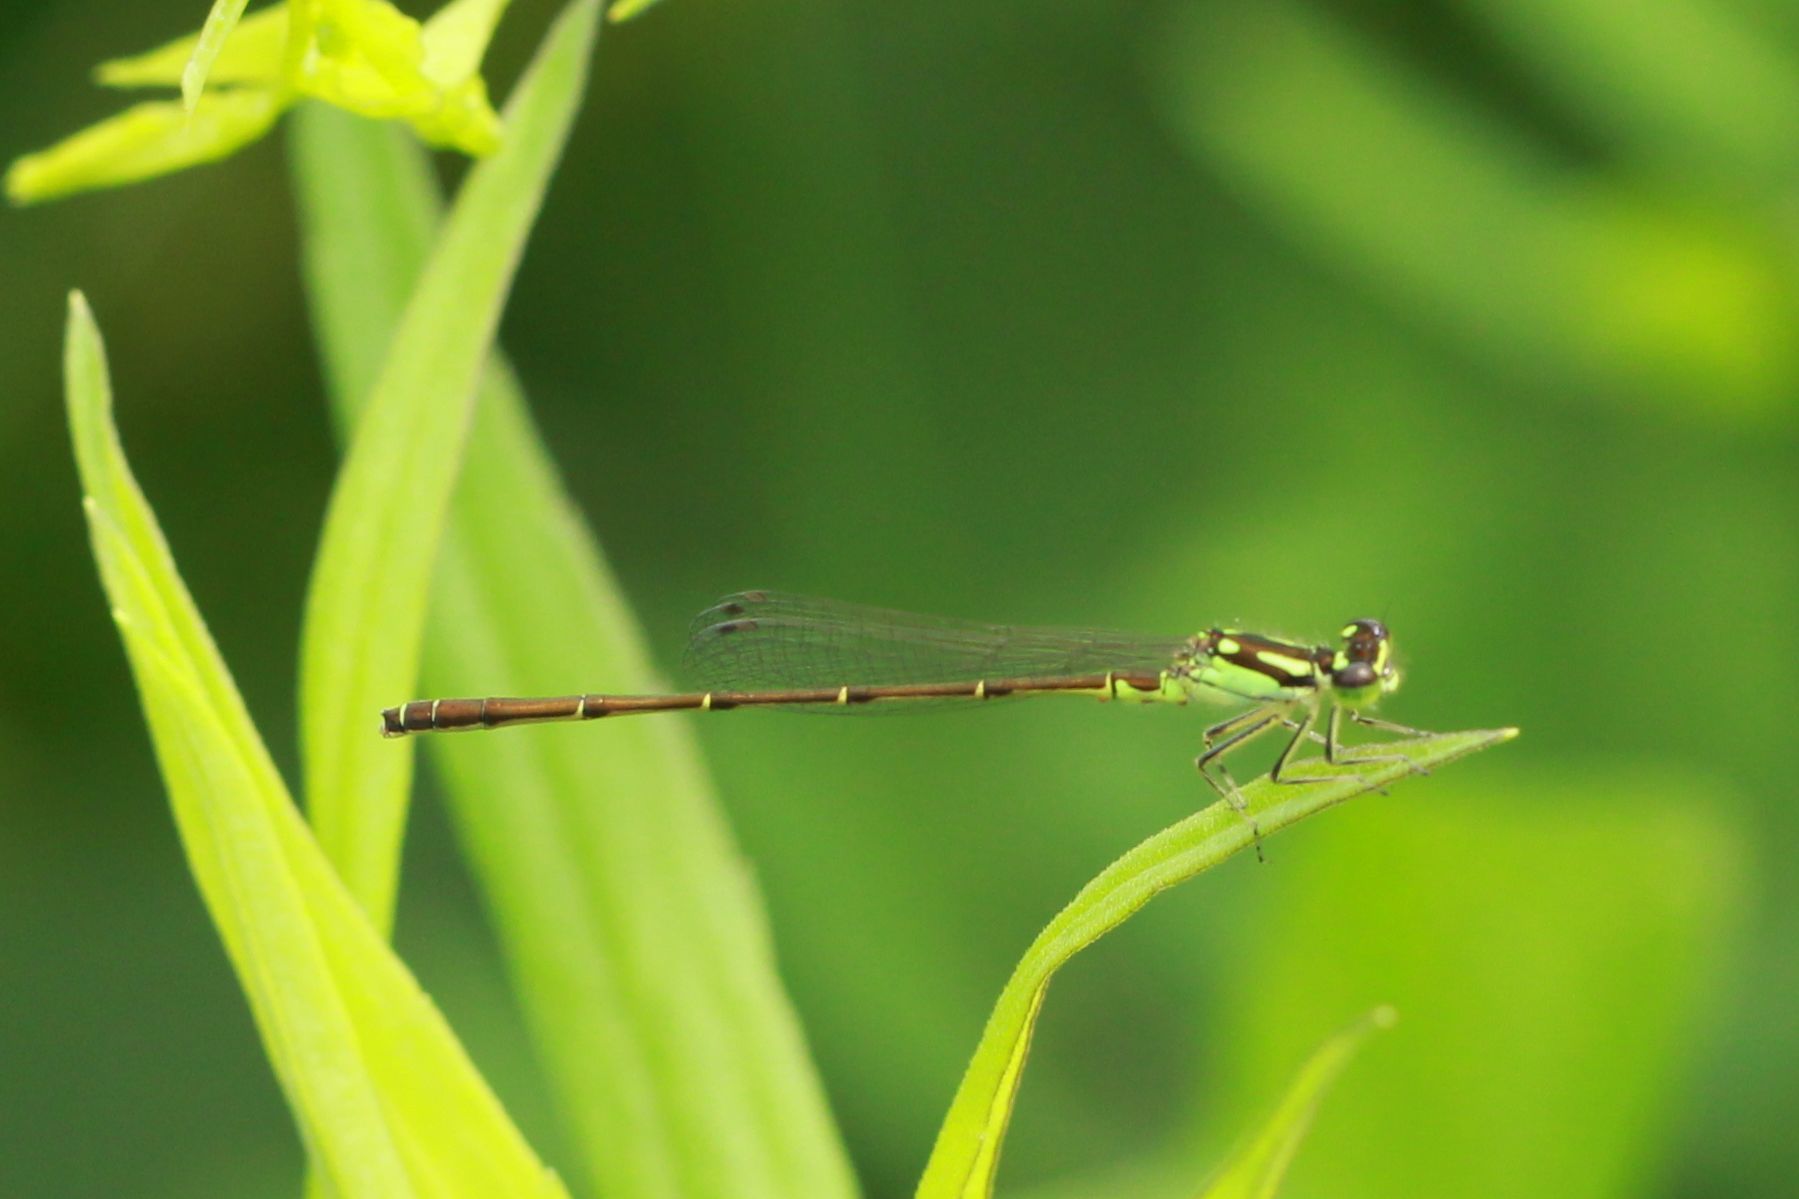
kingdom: Animalia
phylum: Arthropoda
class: Insecta
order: Odonata
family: Coenagrionidae
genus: Ischnura
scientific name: Ischnura posita
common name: Fragile forktail
